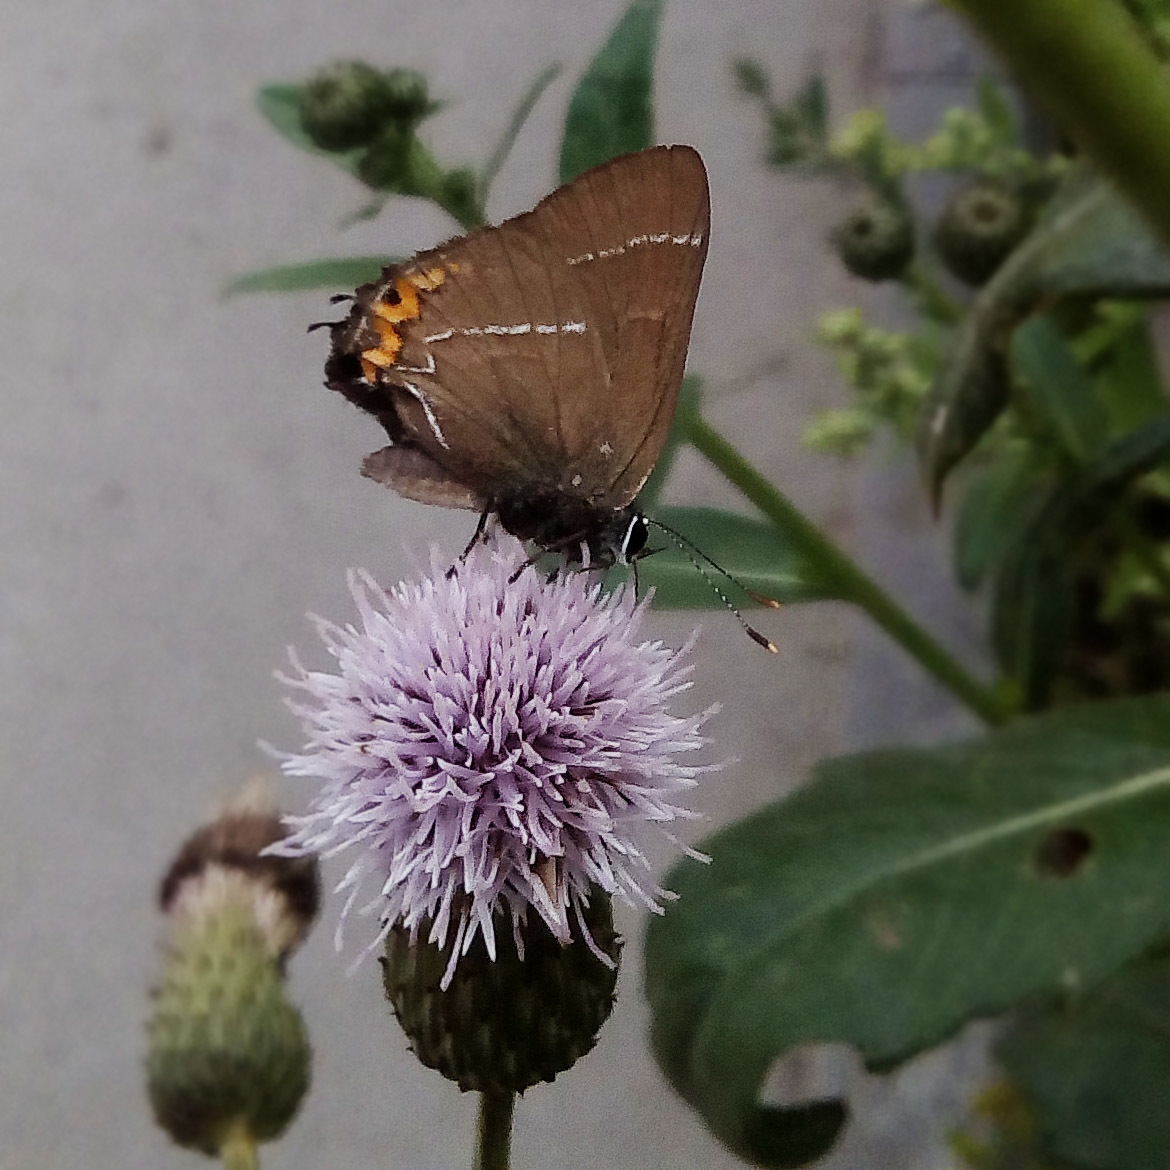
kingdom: Animalia
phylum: Arthropoda
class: Insecta
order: Lepidoptera
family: Lycaenidae
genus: Satyrium
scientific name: Satyrium w-album
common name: White-letter hairstreak
